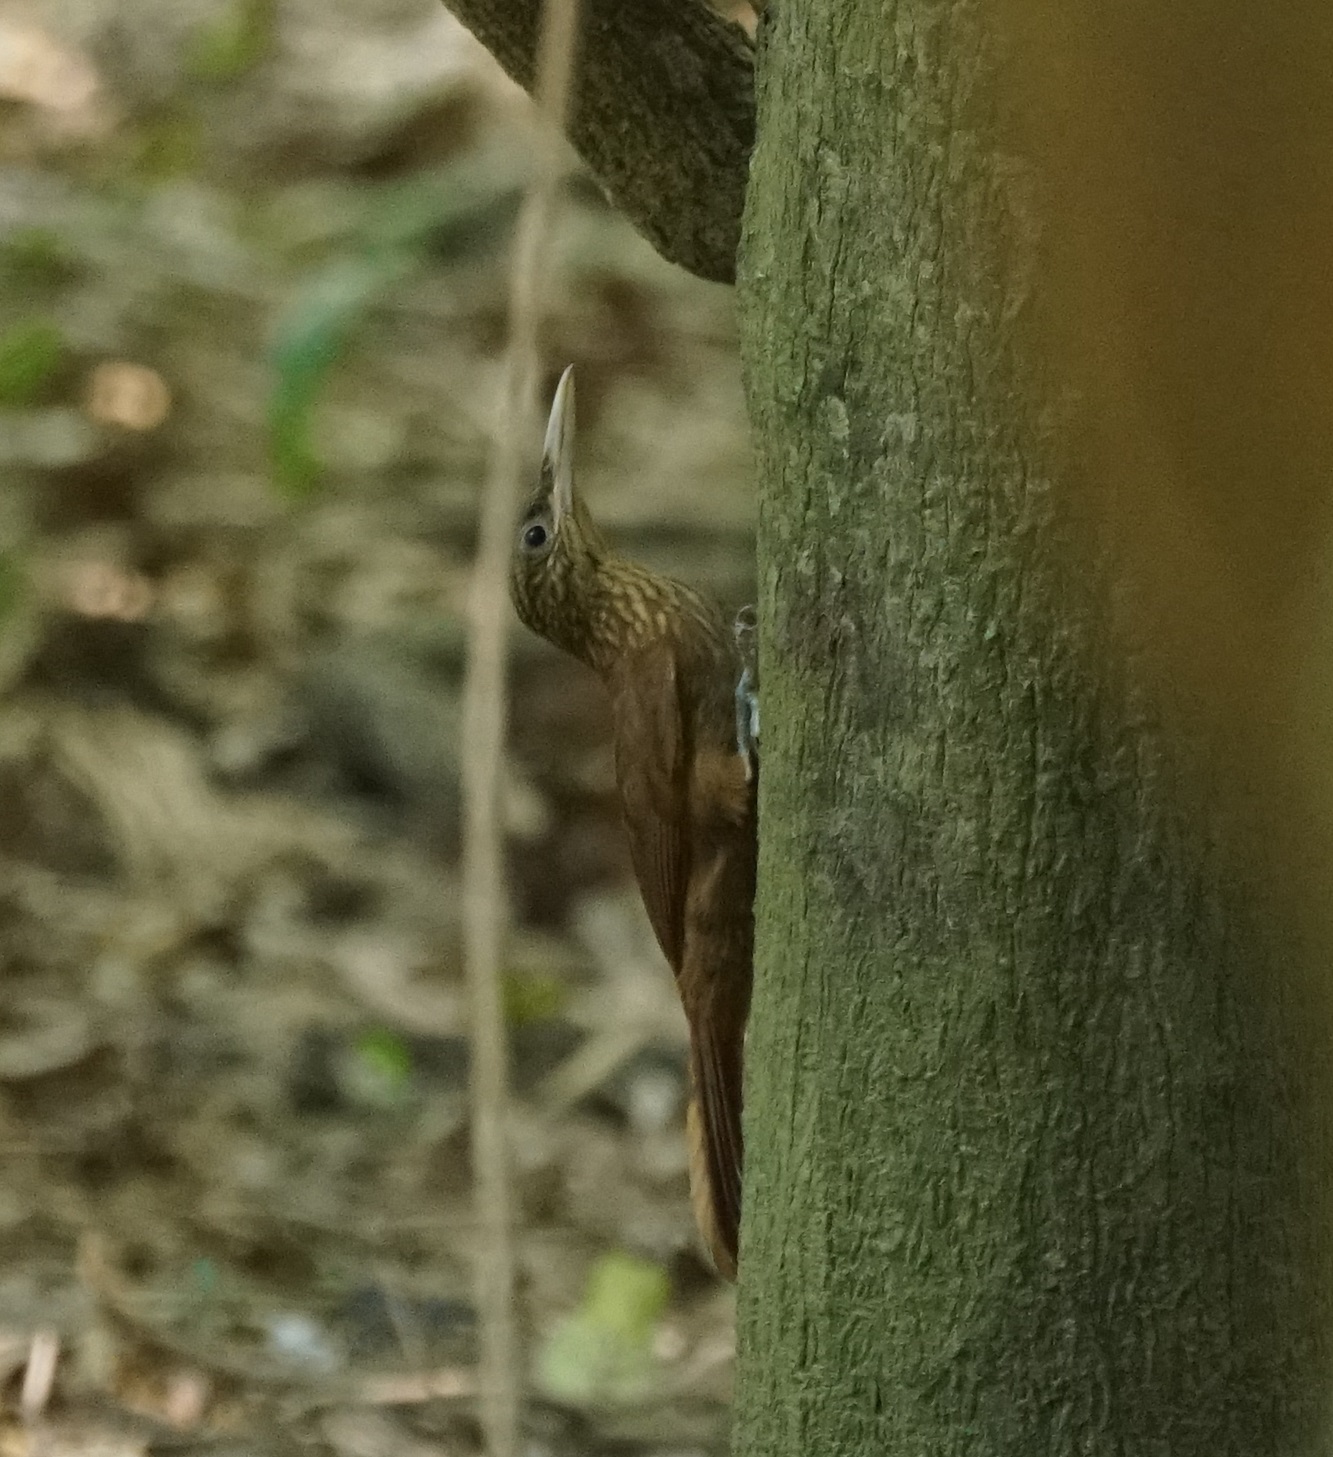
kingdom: Animalia
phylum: Chordata
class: Aves
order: Passeriformes
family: Furnariidae
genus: Xiphorhynchus
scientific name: Xiphorhynchus guttatus
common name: Buff-throated woodcreeper
